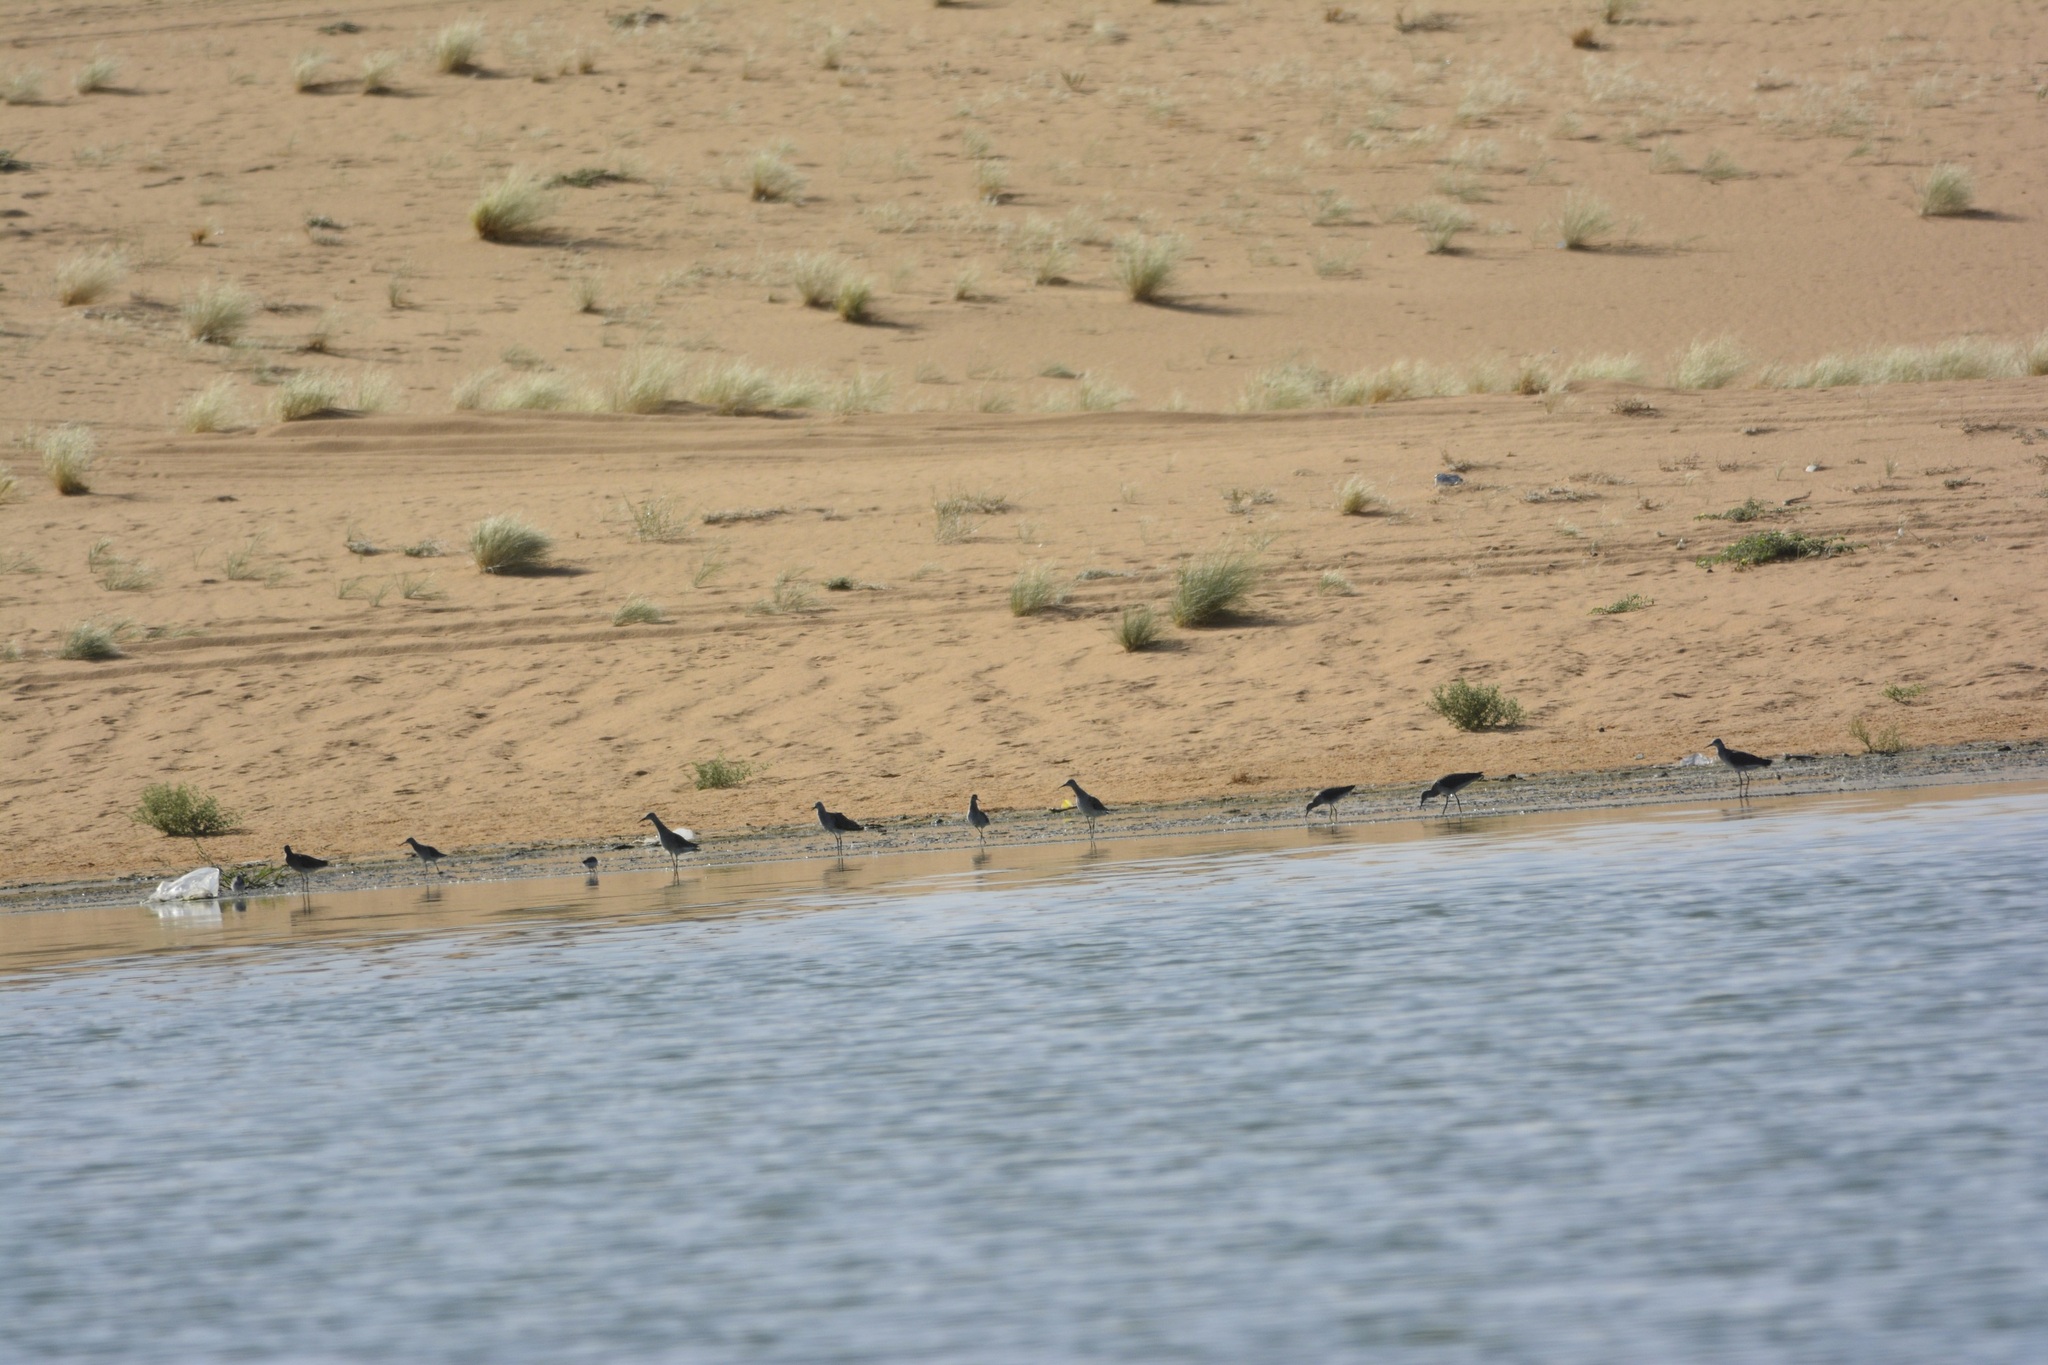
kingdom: Animalia
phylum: Chordata
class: Aves
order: Charadriiformes
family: Scolopacidae
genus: Calidris
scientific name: Calidris pugnax
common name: Ruff
